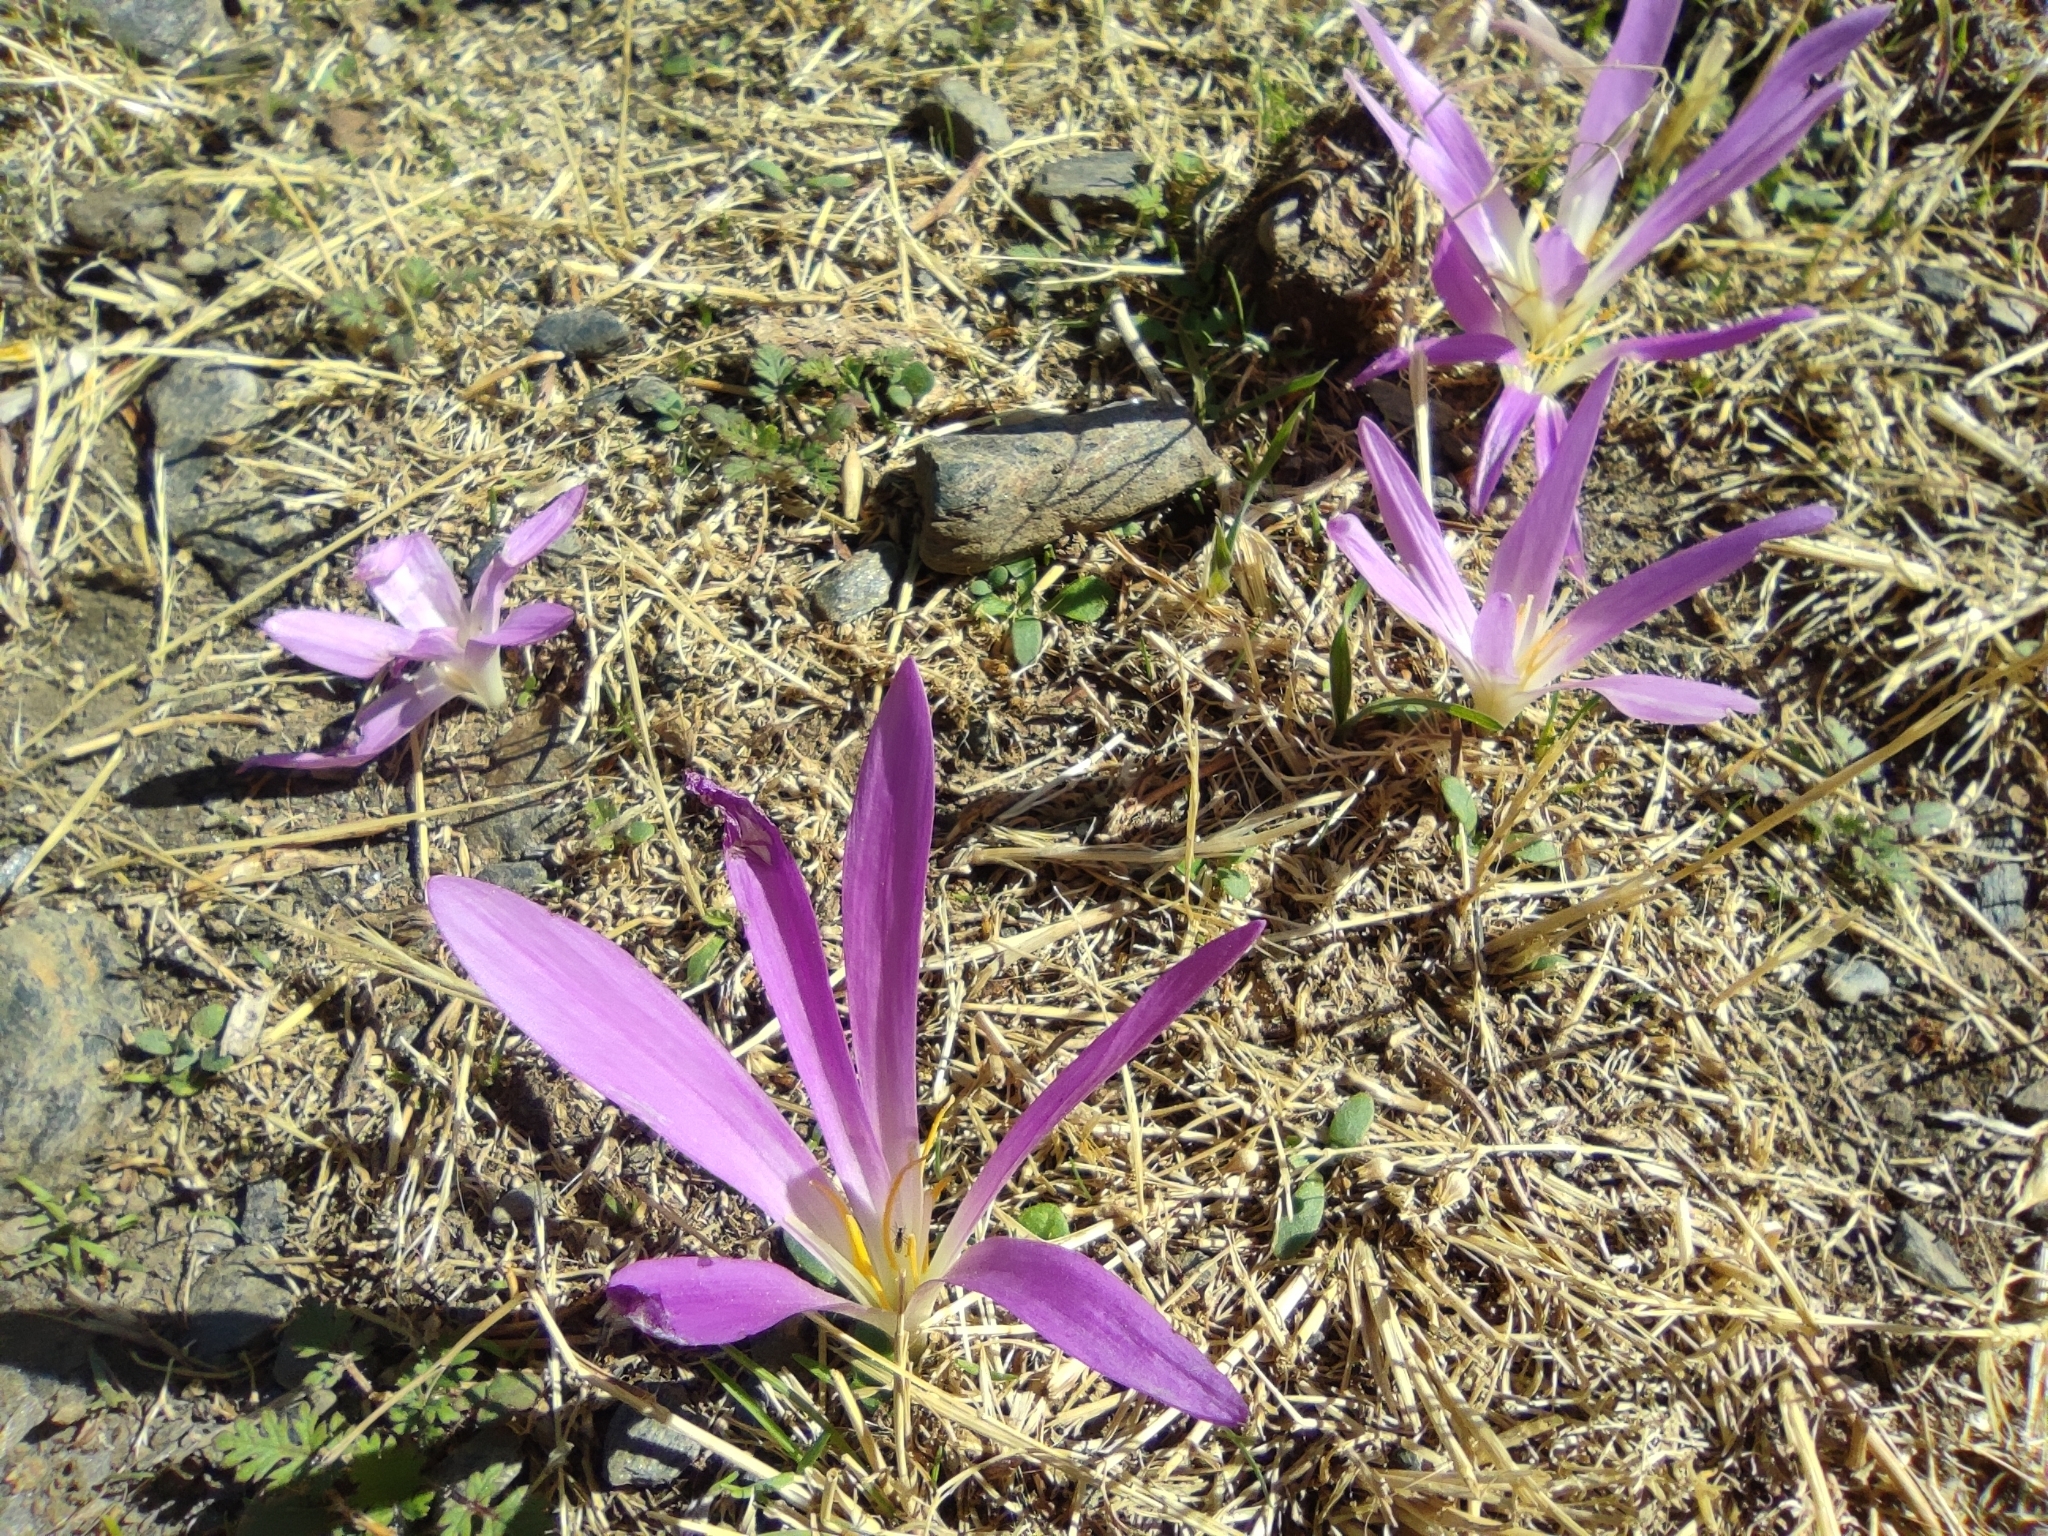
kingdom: Plantae
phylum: Tracheophyta
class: Liliopsida
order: Liliales
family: Colchicaceae
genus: Colchicum
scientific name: Colchicum montanum
